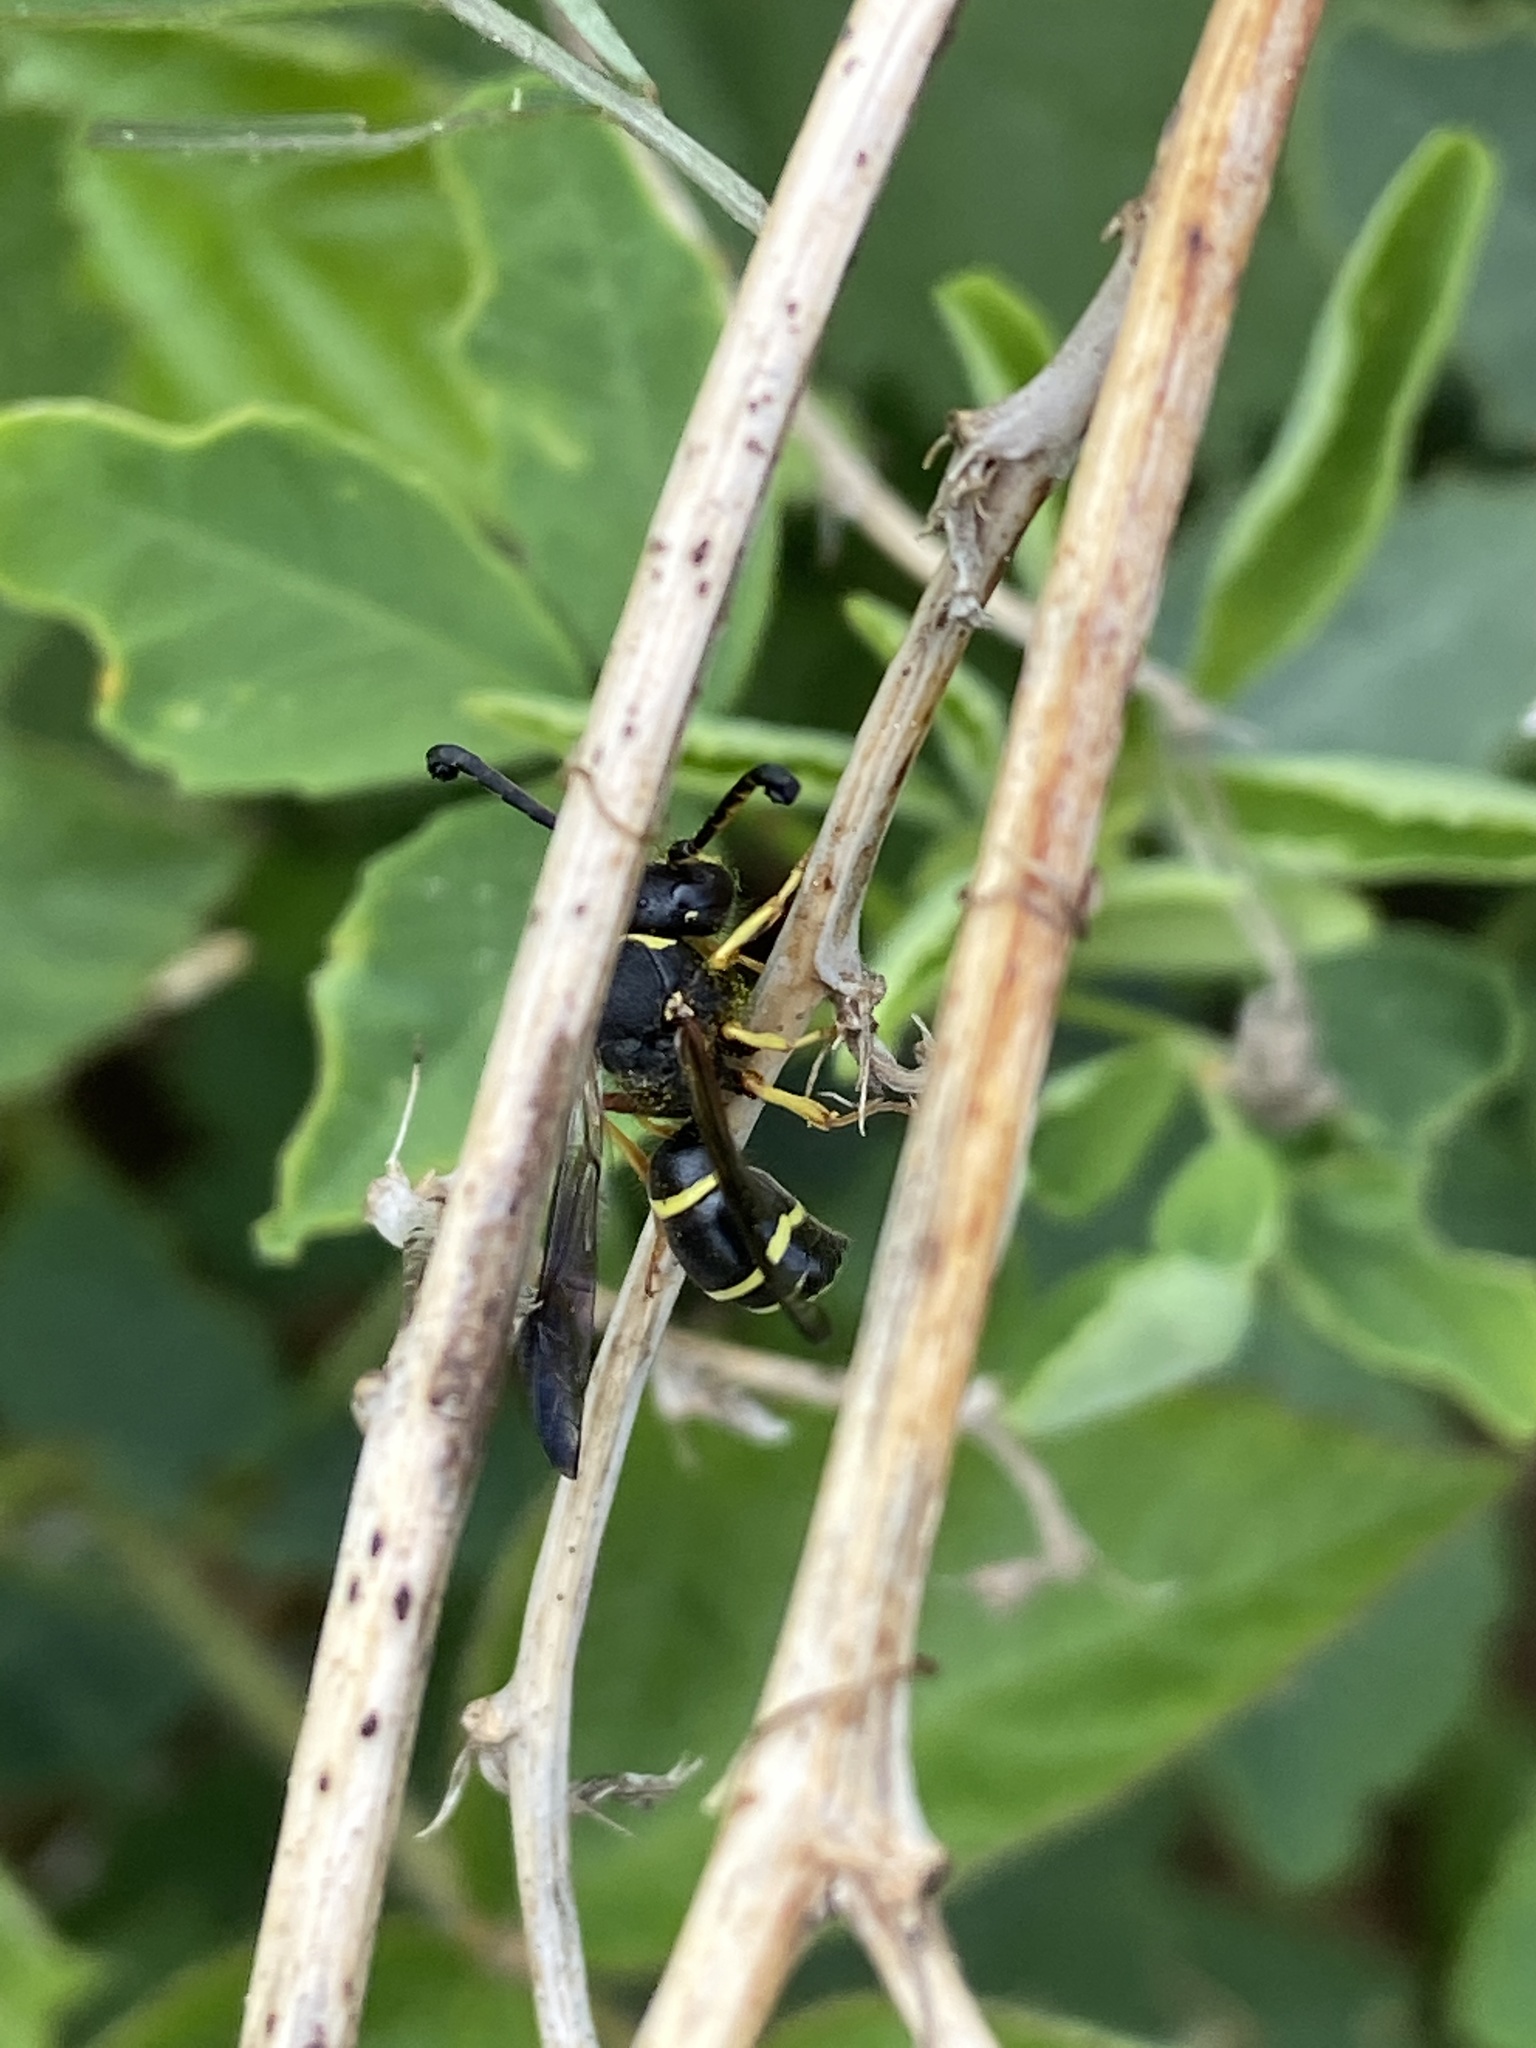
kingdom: Animalia
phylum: Arthropoda
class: Insecta
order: Hymenoptera
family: Vespidae
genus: Odynerus
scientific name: Odynerus spinipes
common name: Spiny mason wasp
